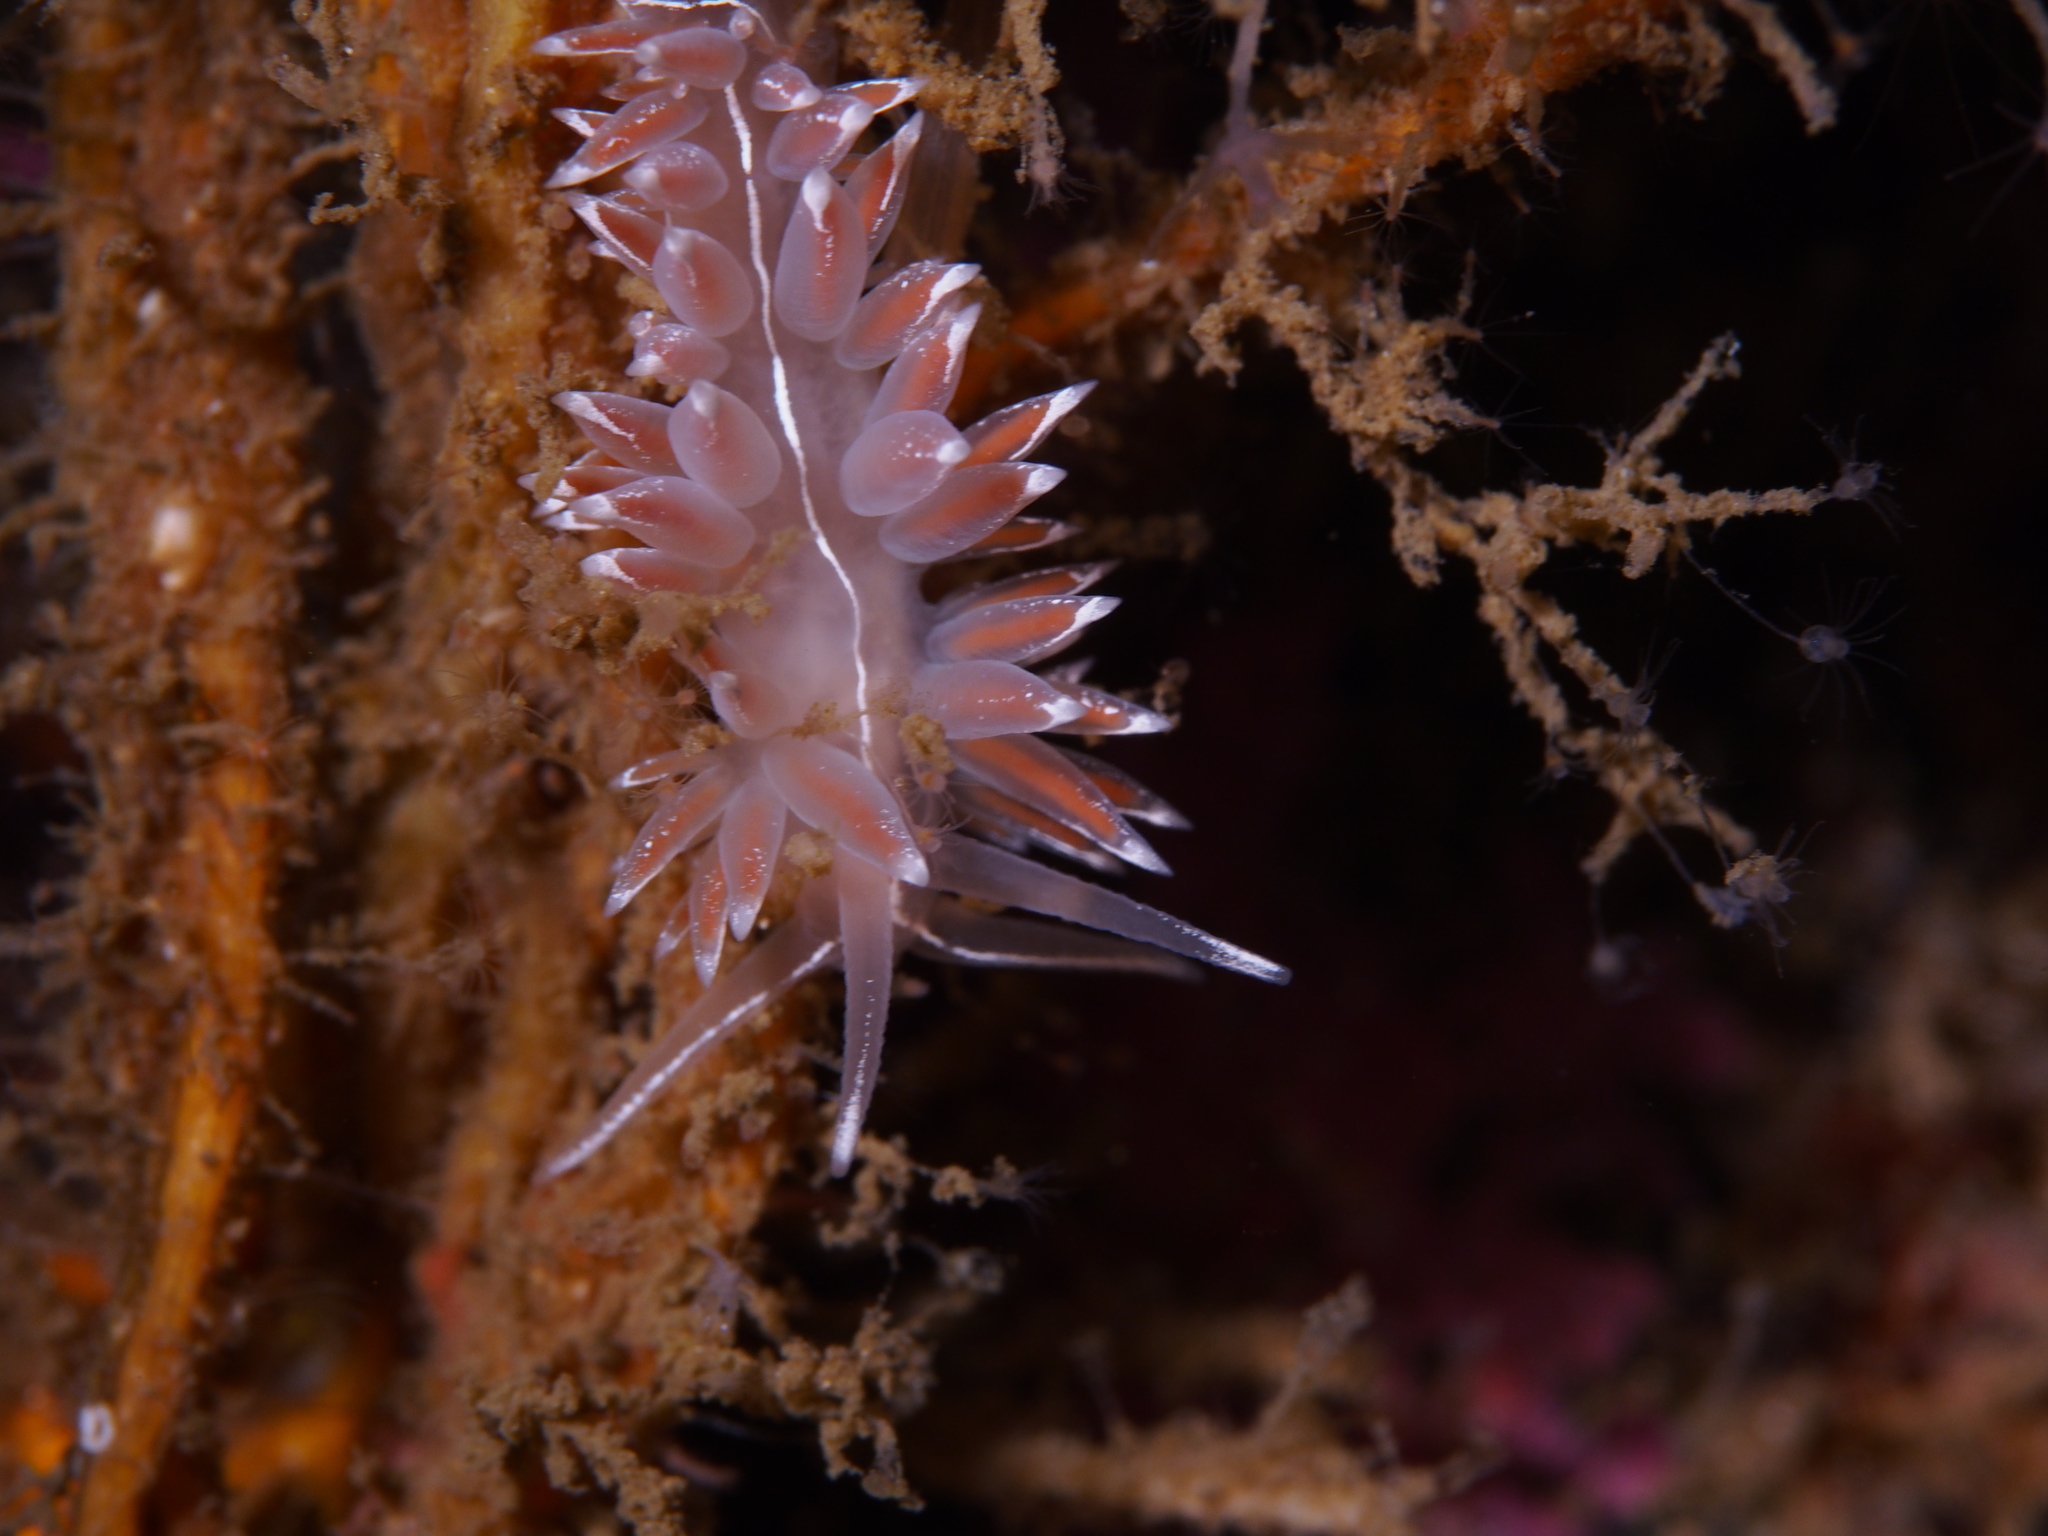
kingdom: Animalia
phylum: Mollusca
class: Gastropoda
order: Nudibranchia
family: Coryphellidae
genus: Coryphella
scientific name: Coryphella lineata
